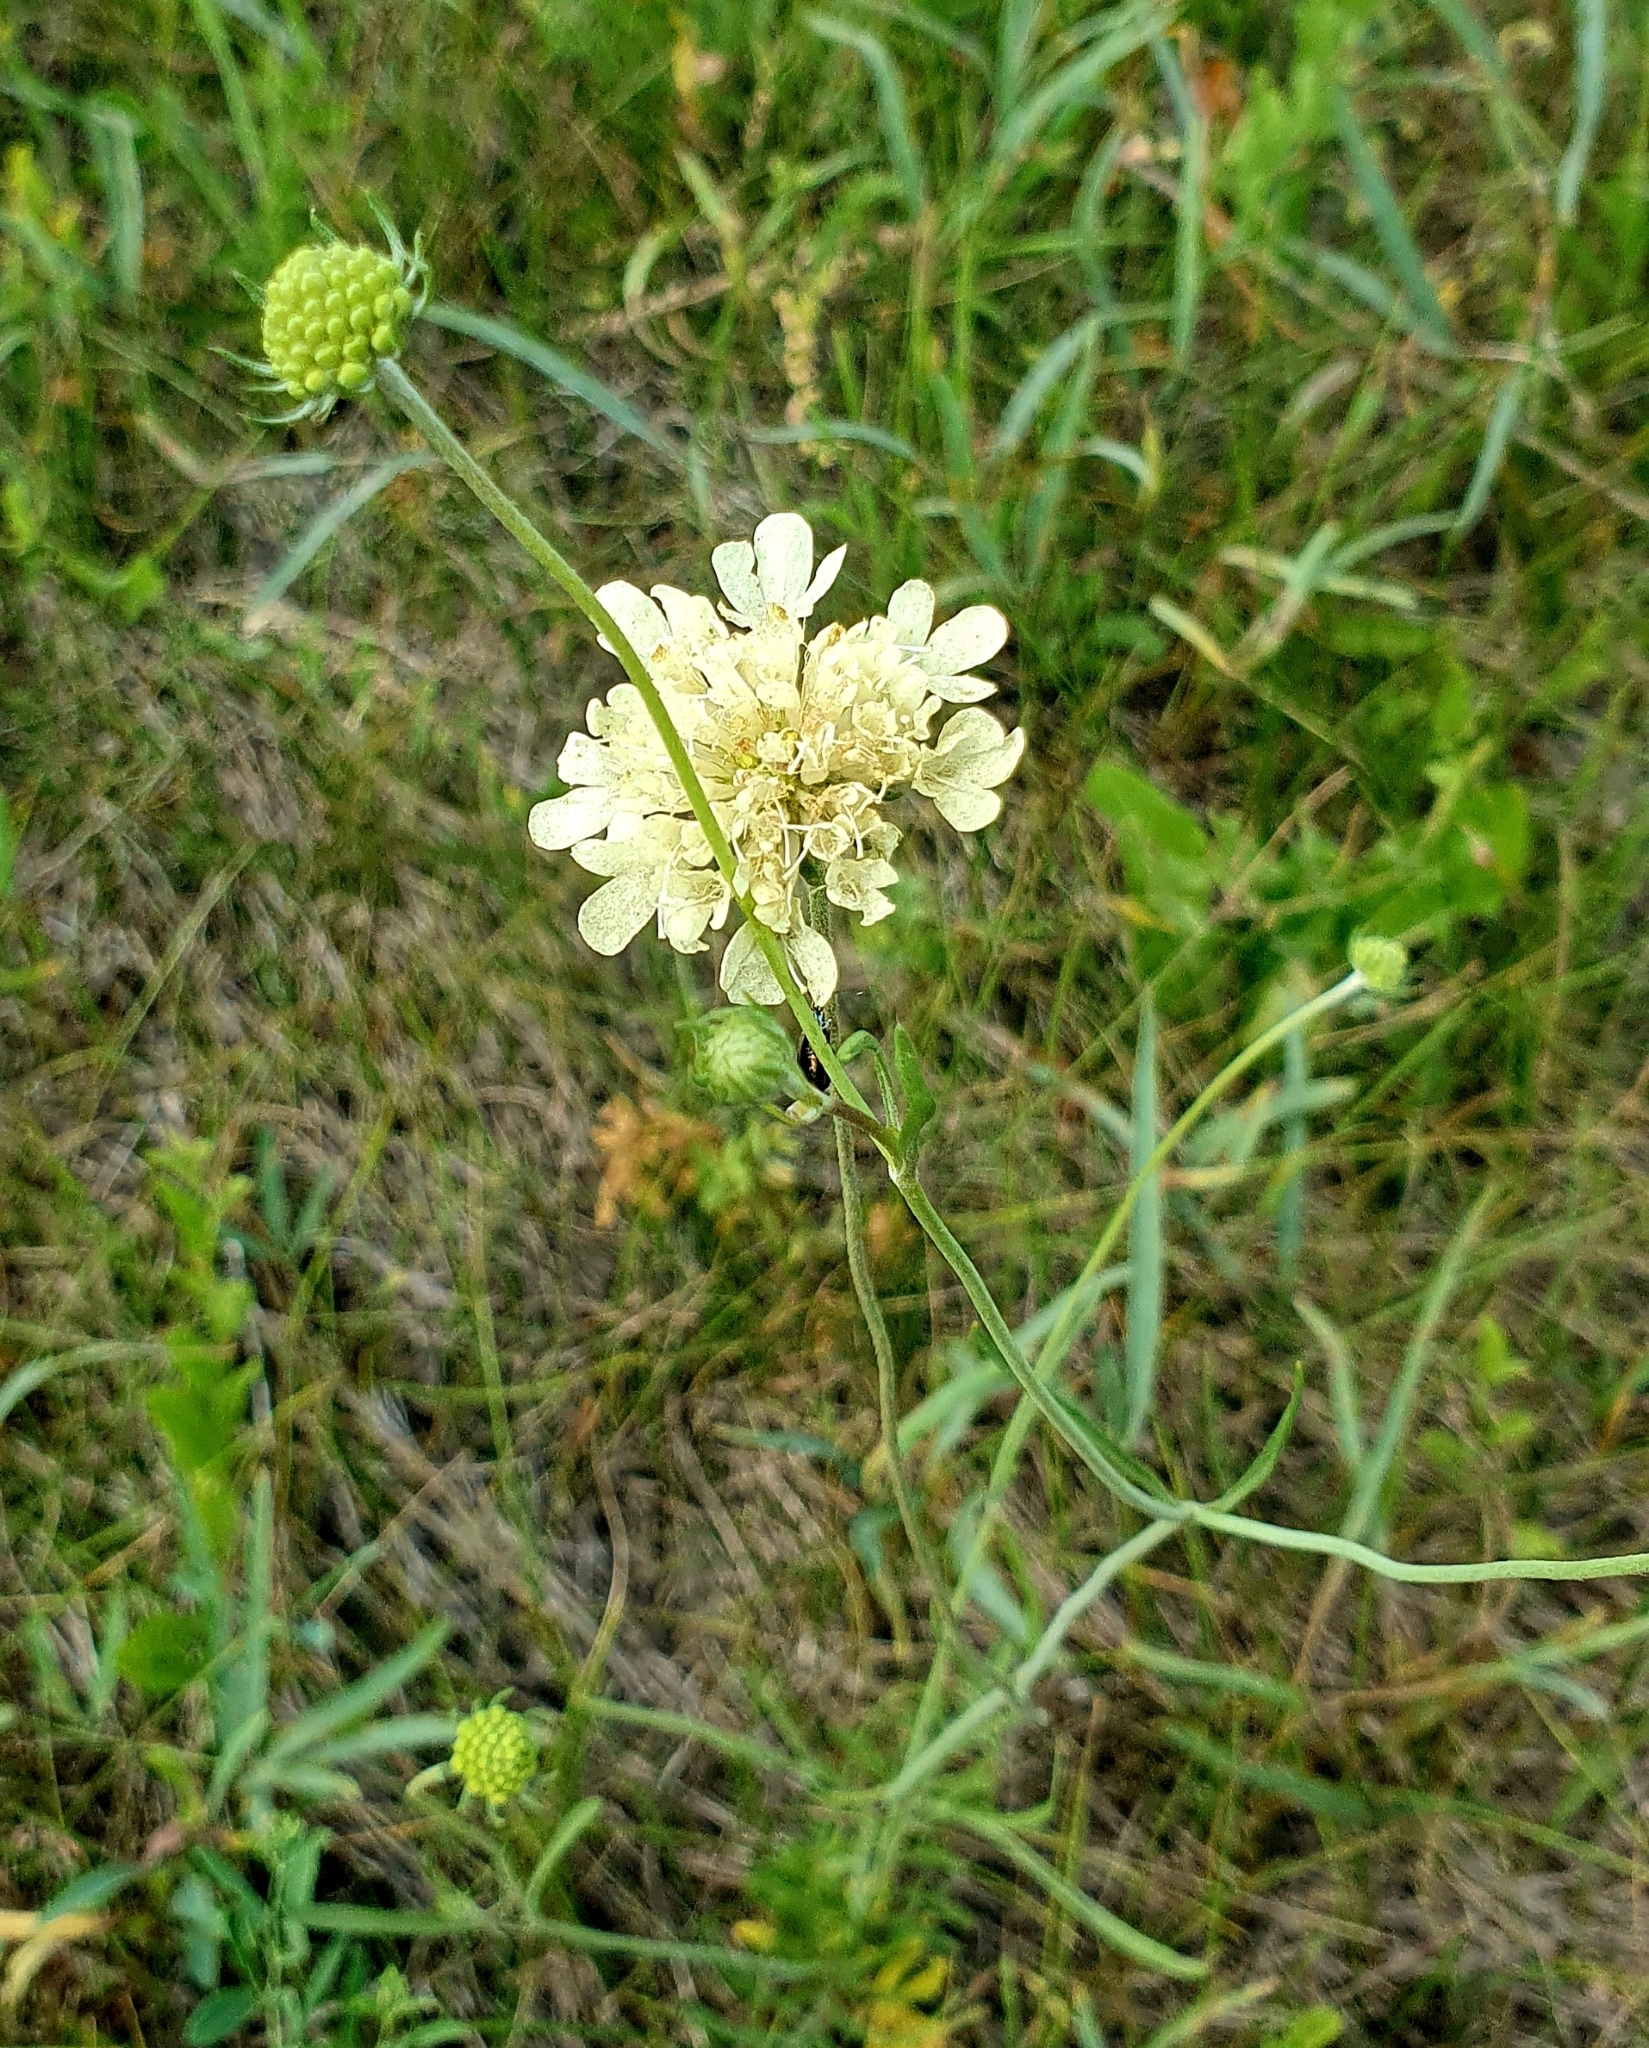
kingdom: Plantae
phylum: Tracheophyta
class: Magnoliopsida
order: Dipsacales
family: Caprifoliaceae
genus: Scabiosa
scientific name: Scabiosa ochroleuca
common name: Cream pincushions
